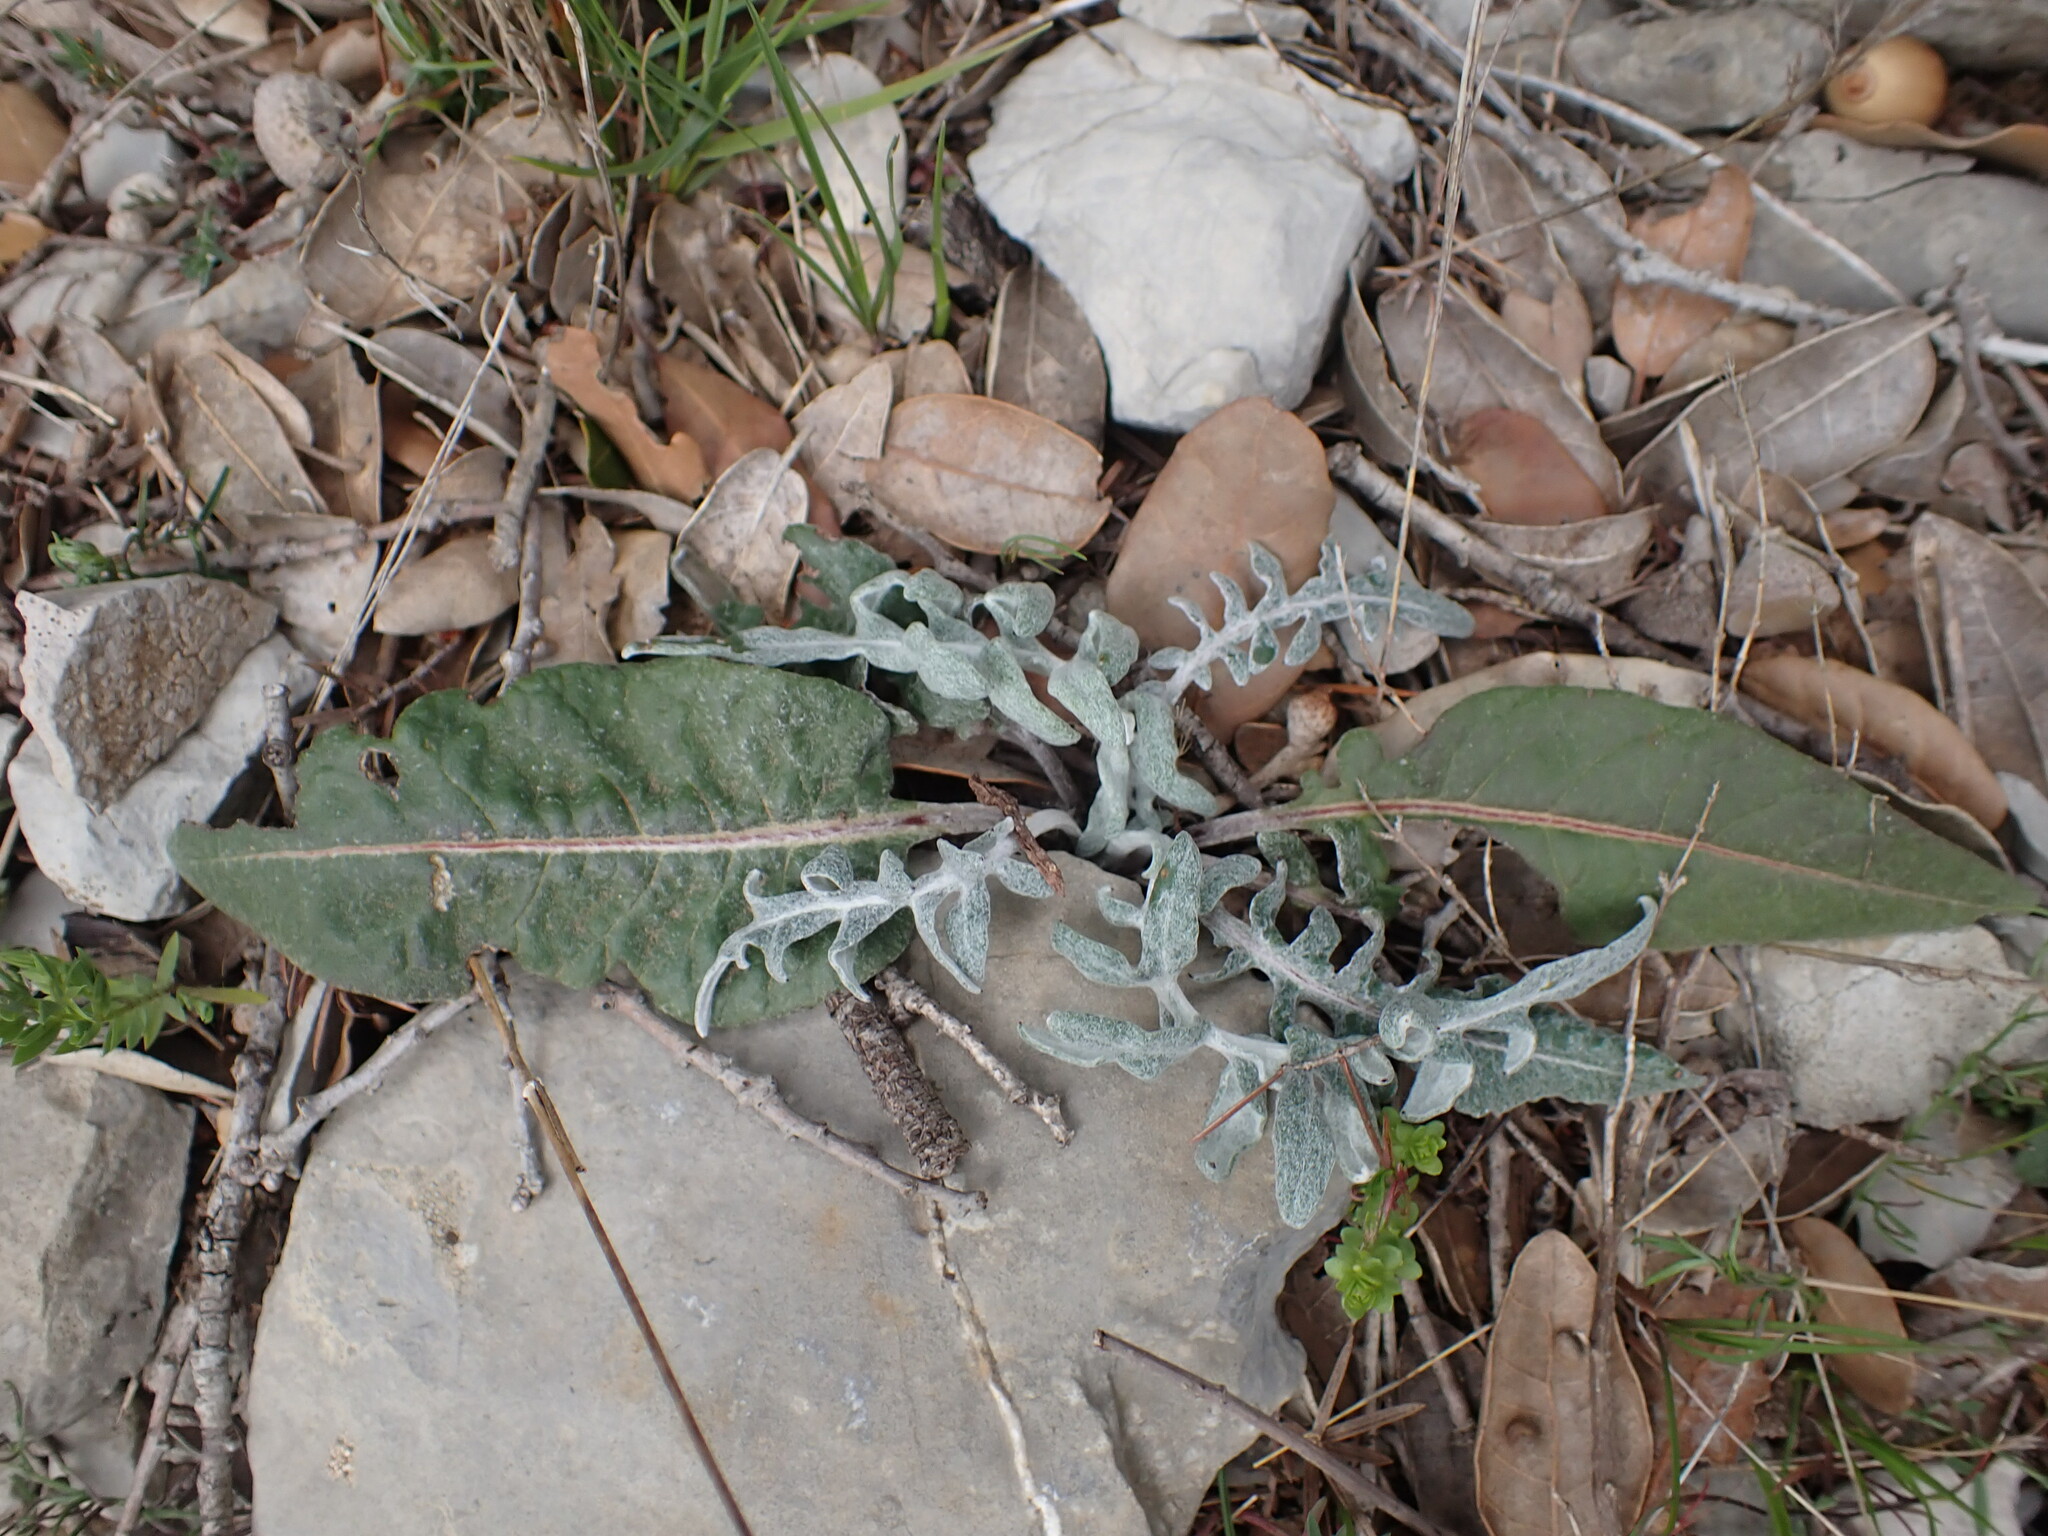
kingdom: Plantae
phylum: Tracheophyta
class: Magnoliopsida
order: Asterales
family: Asteraceae
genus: Leuzea
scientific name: Leuzea conifera
